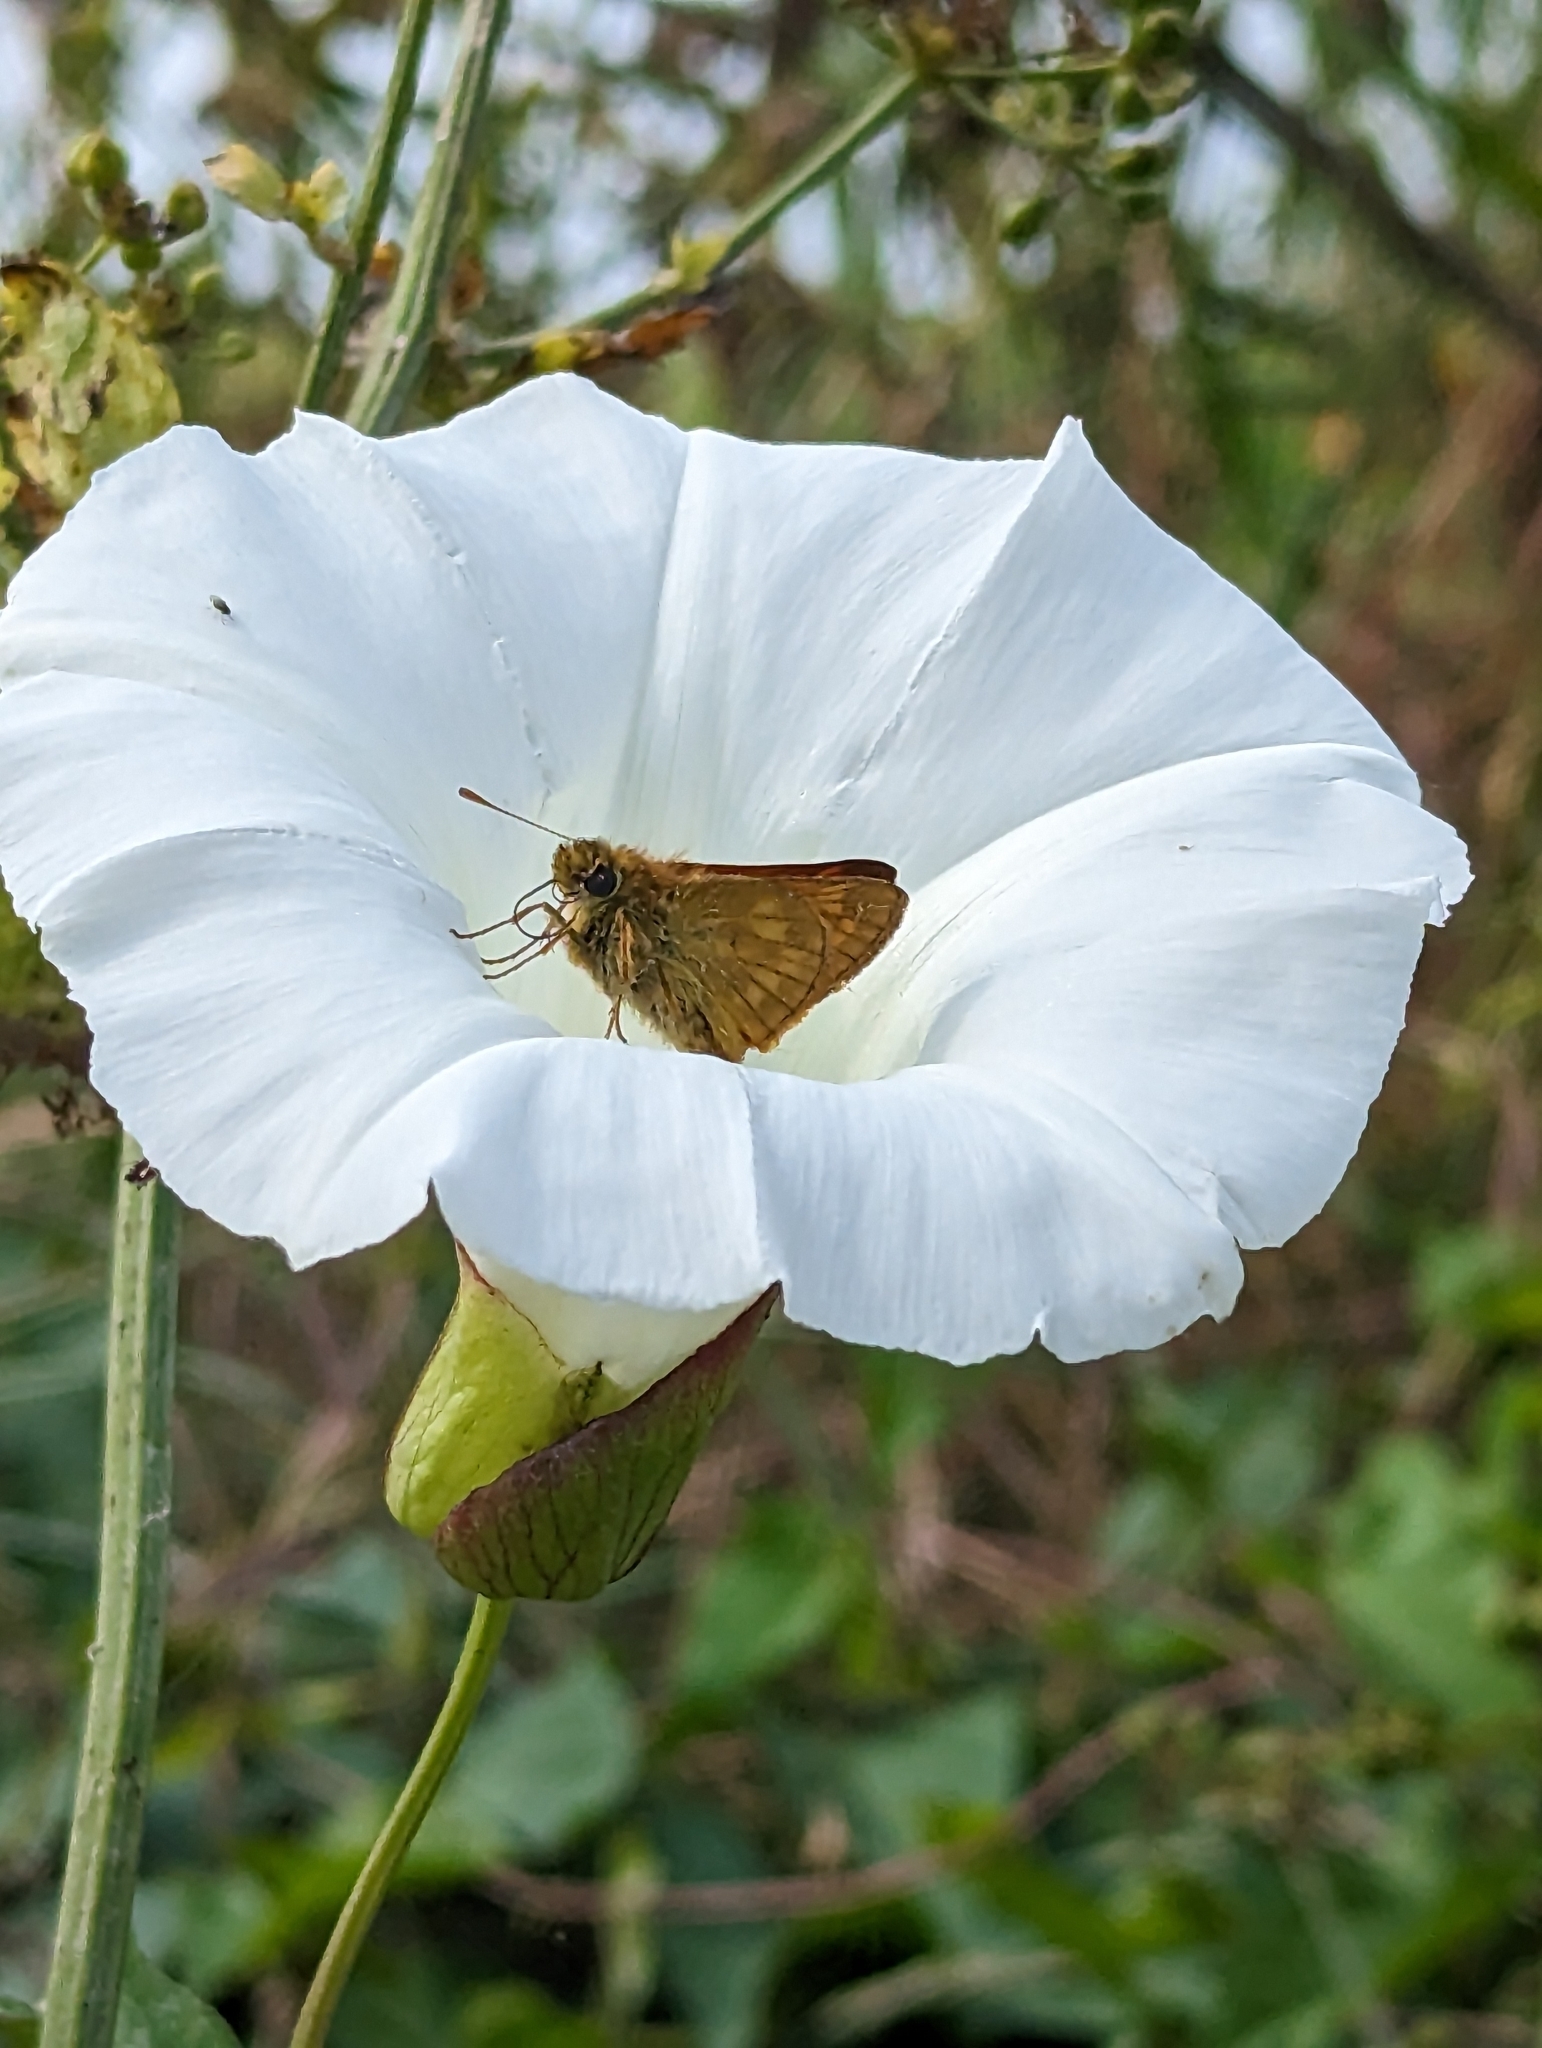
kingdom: Animalia
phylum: Arthropoda
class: Insecta
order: Lepidoptera
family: Hesperiidae
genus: Ochlodes
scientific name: Ochlodes venata
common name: Large skipper
